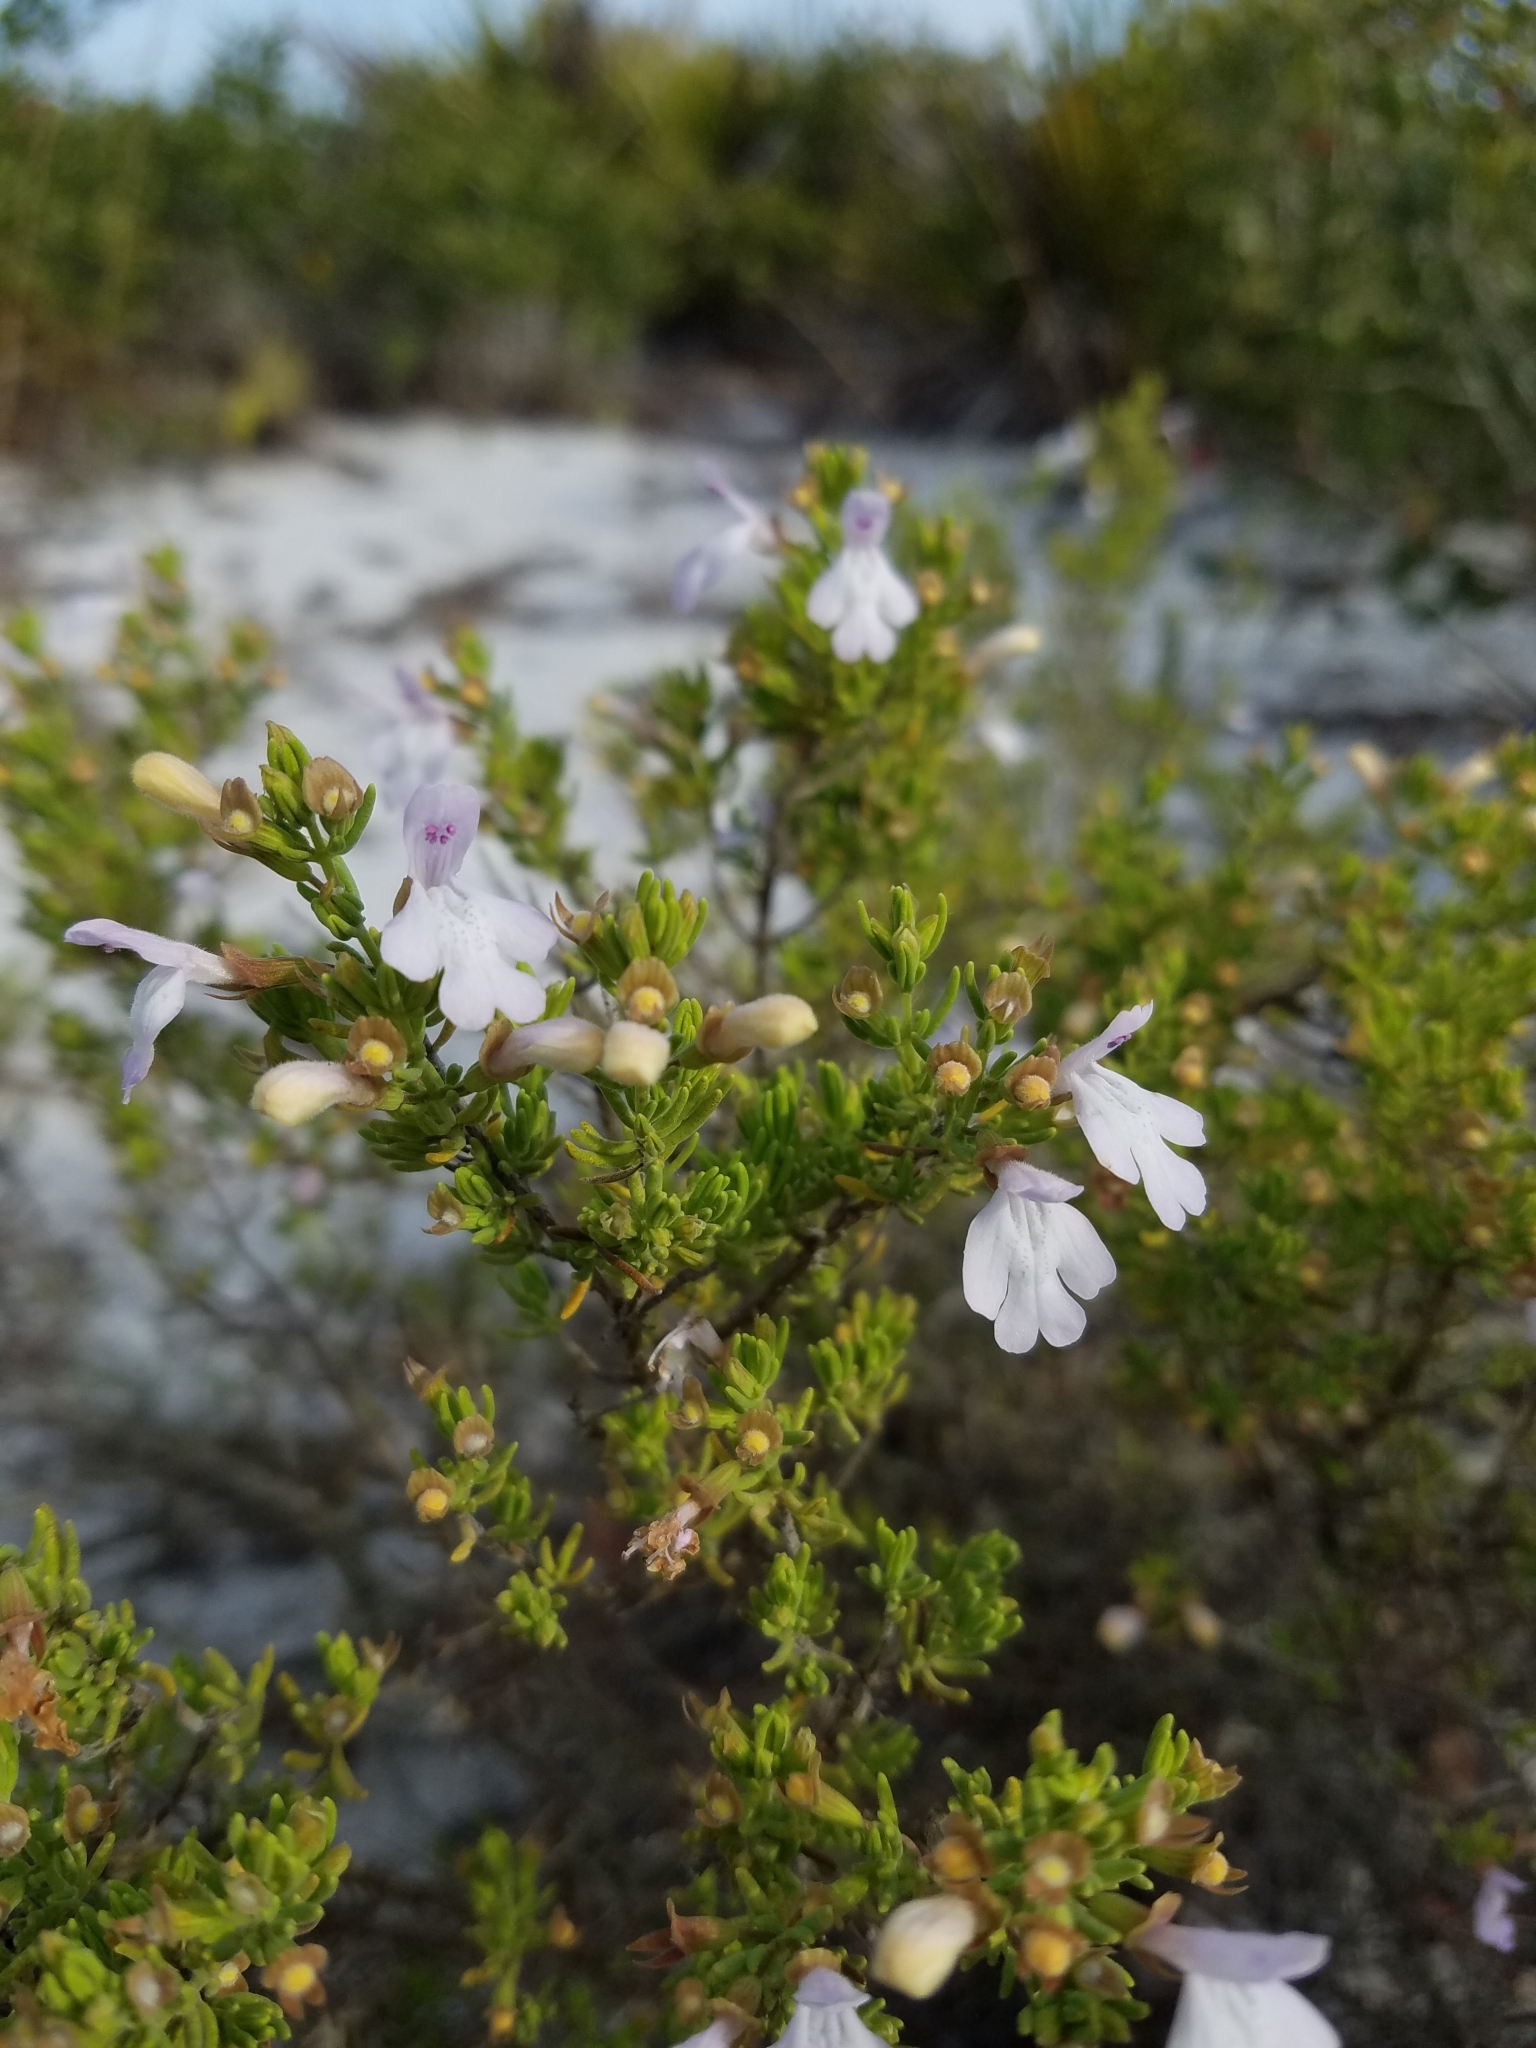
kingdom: Plantae
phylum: Tracheophyta
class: Magnoliopsida
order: Lamiales
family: Lamiaceae
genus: Clinopodium
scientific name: Clinopodium ashei
